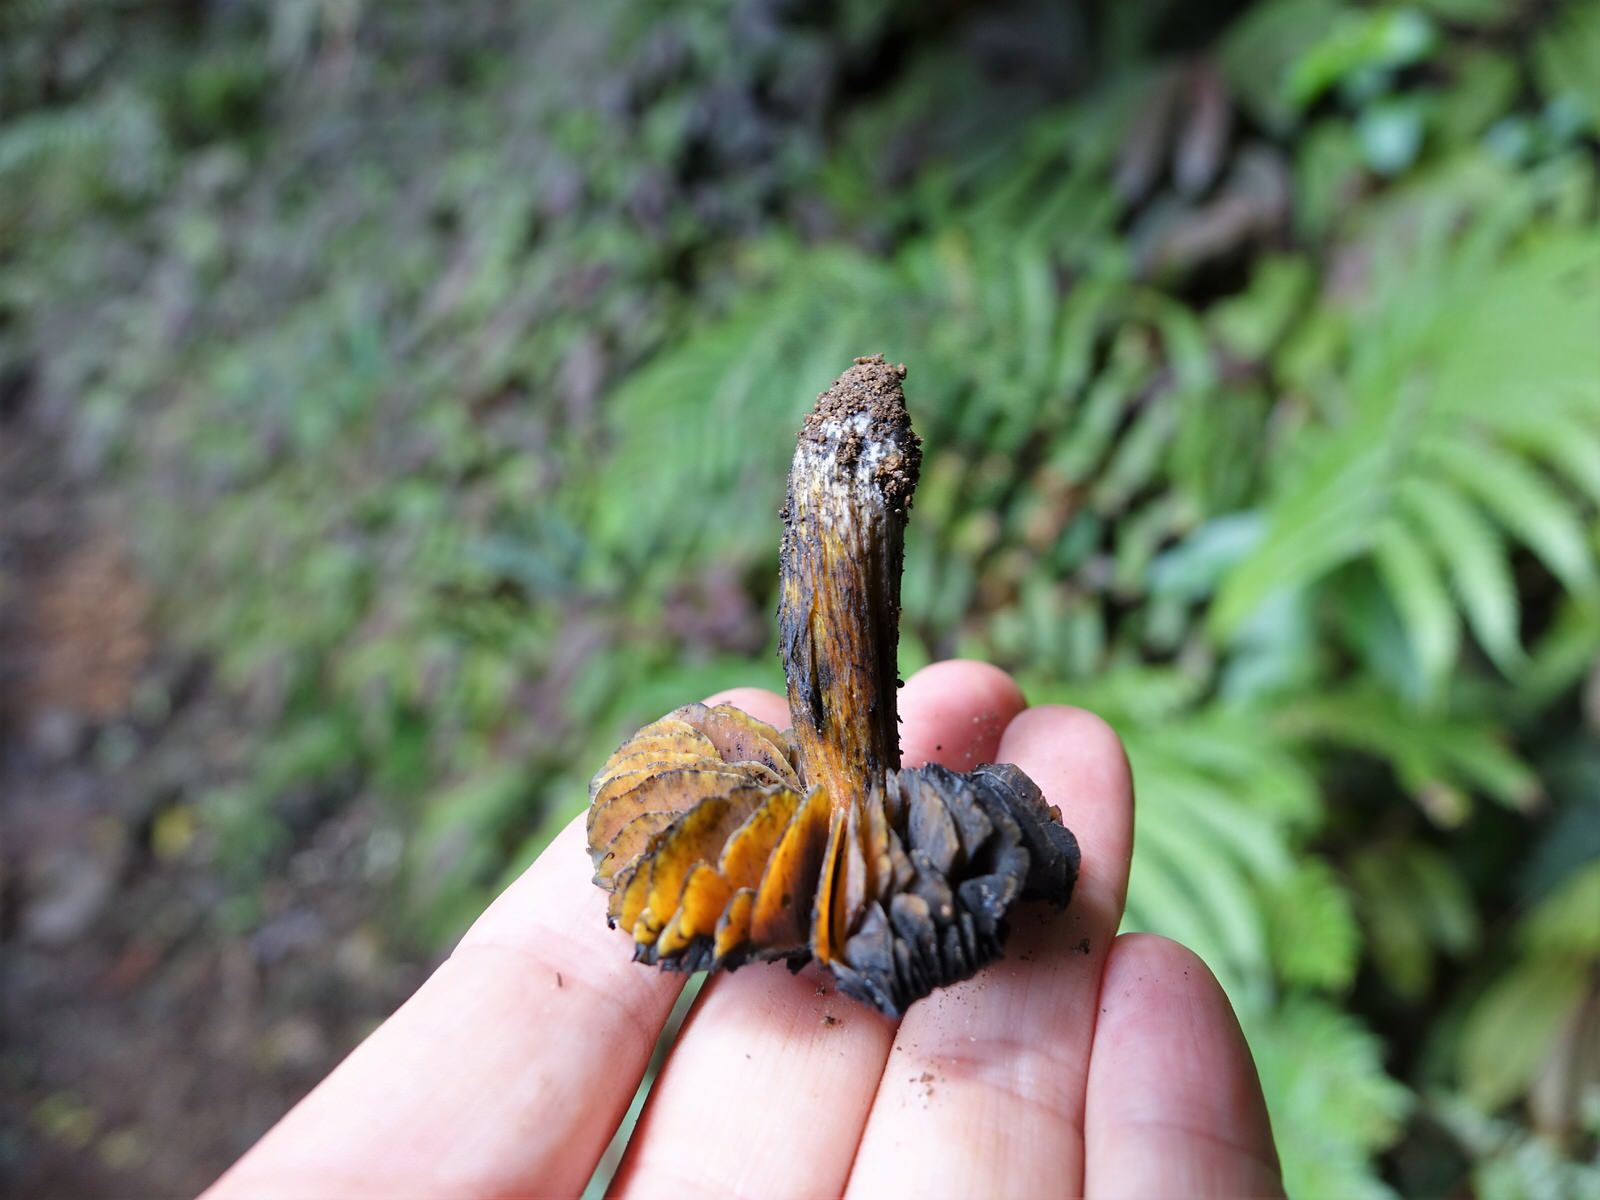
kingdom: Fungi
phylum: Basidiomycota
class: Agaricomycetes
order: Agaricales
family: Hygrophoraceae
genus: Hygrocybe
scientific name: Hygrocybe astatogala
